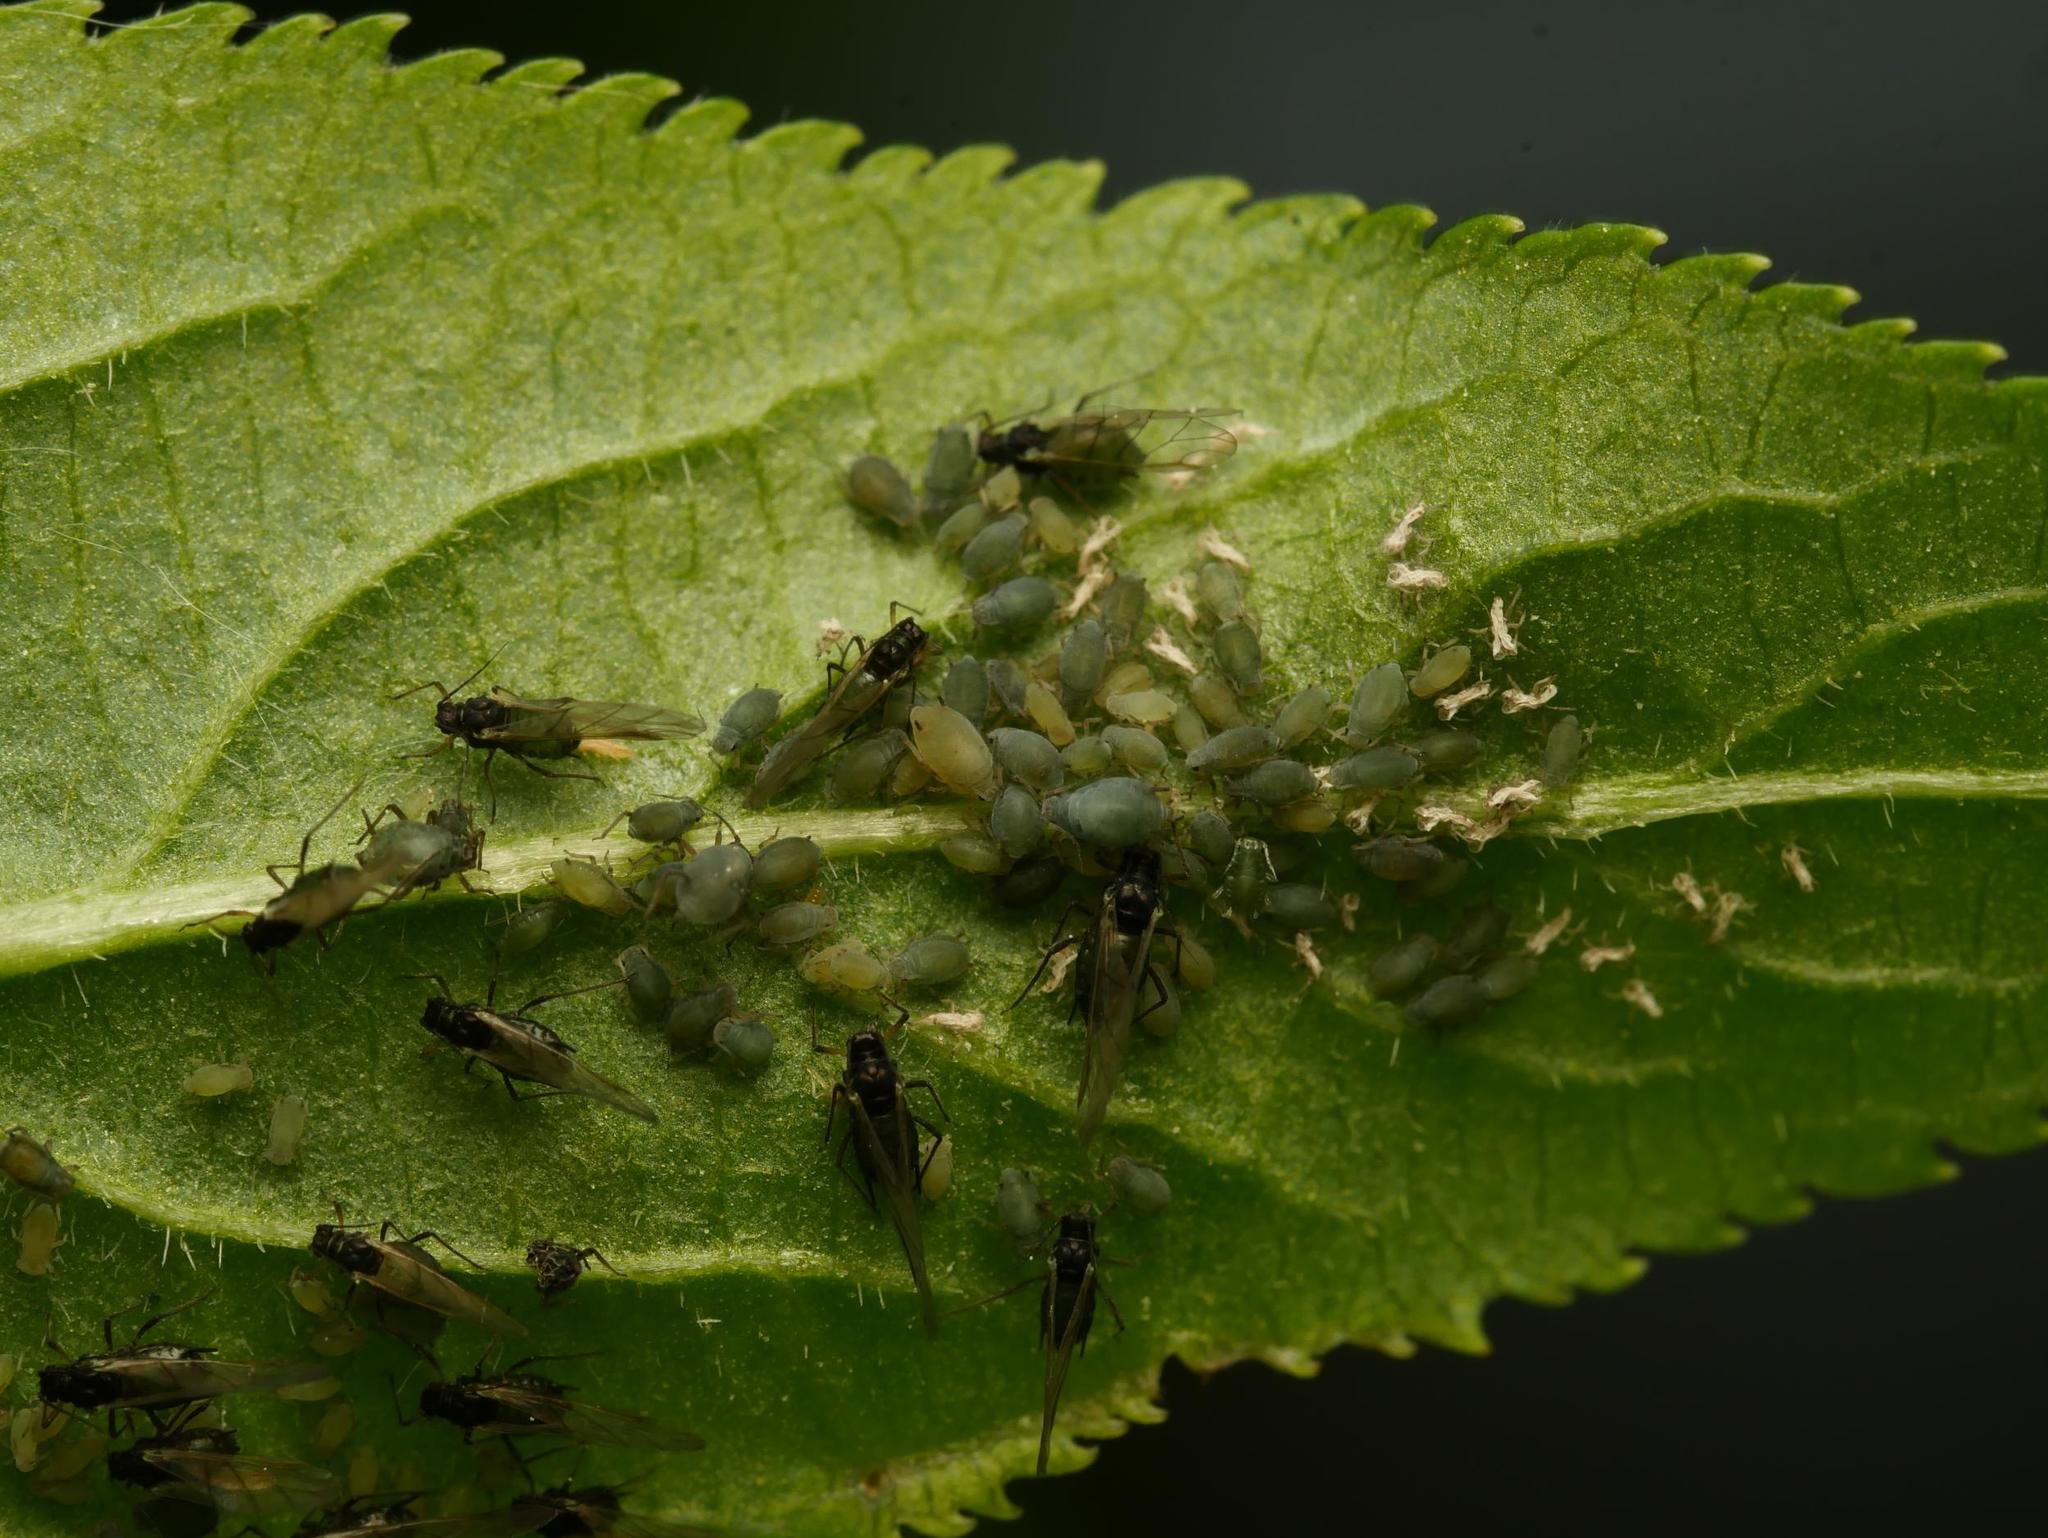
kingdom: Animalia
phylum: Arthropoda
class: Insecta
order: Hemiptera
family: Aphididae
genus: Aphis
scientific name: Aphis sambuci
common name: Elder aphid
